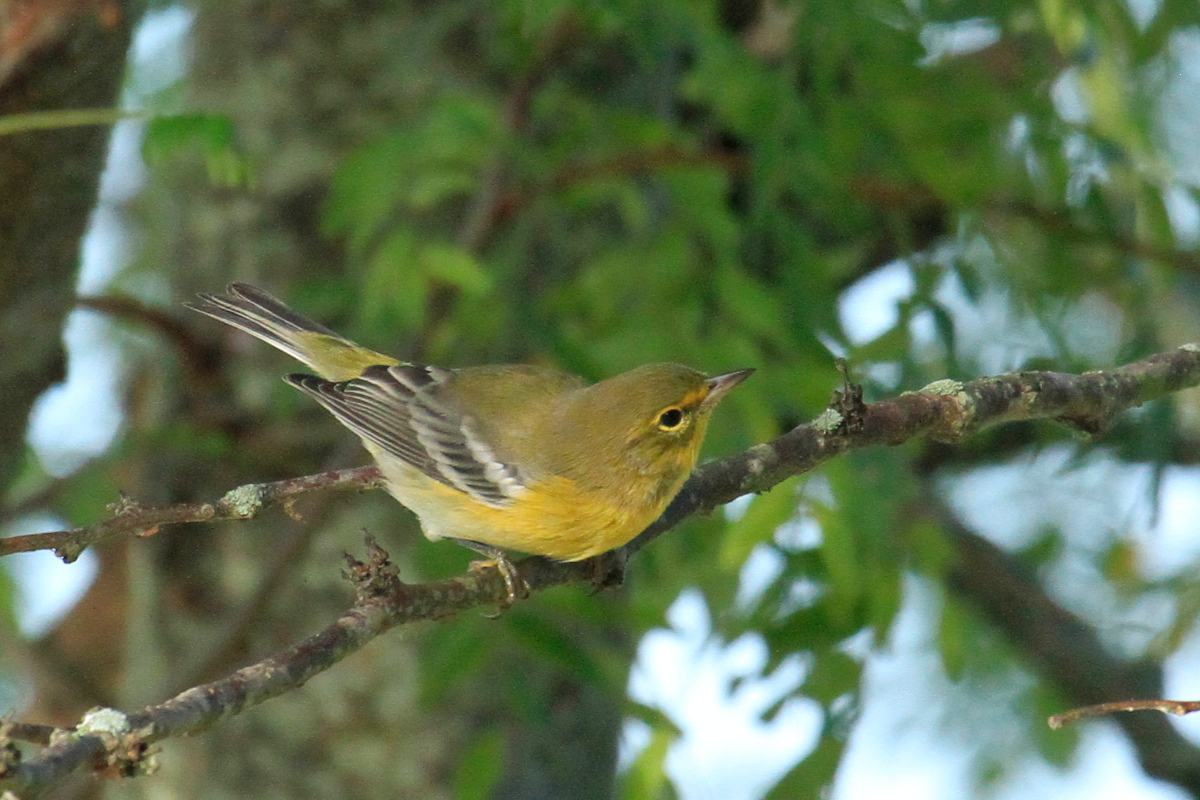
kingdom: Animalia
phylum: Chordata
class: Aves
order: Passeriformes
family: Parulidae
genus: Setophaga
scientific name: Setophaga pinus
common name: Pine warbler
